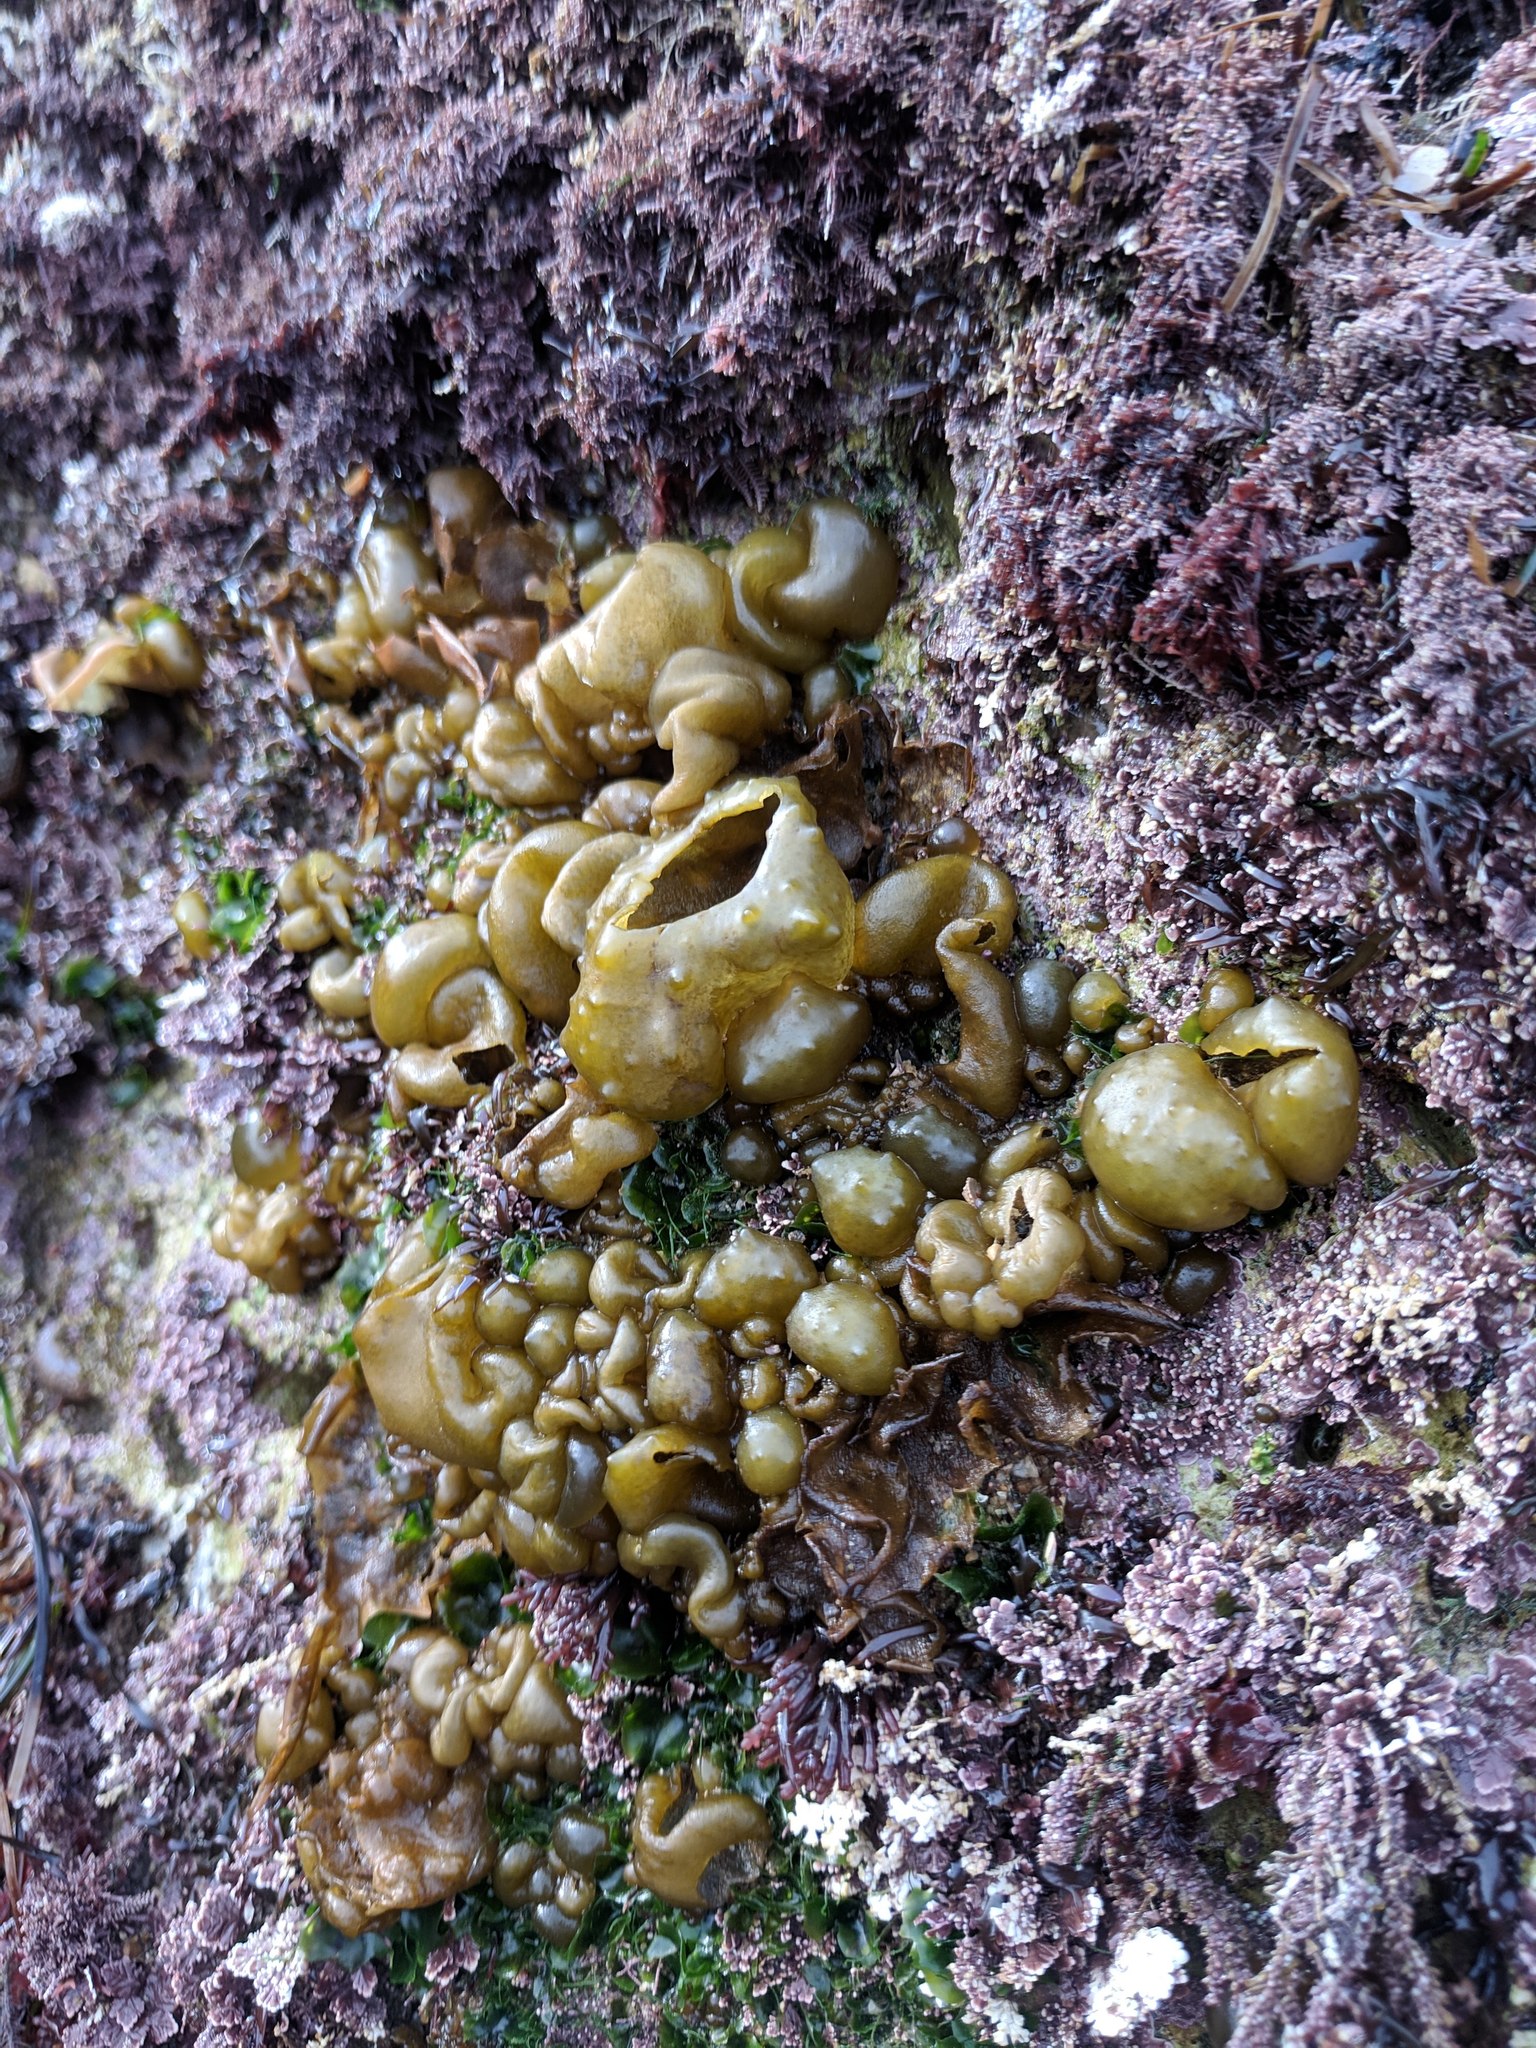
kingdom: Chromista
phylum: Ochrophyta
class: Phaeophyceae
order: Scytosiphonales
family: Scytosiphonaceae
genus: Colpomenia
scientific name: Colpomenia
